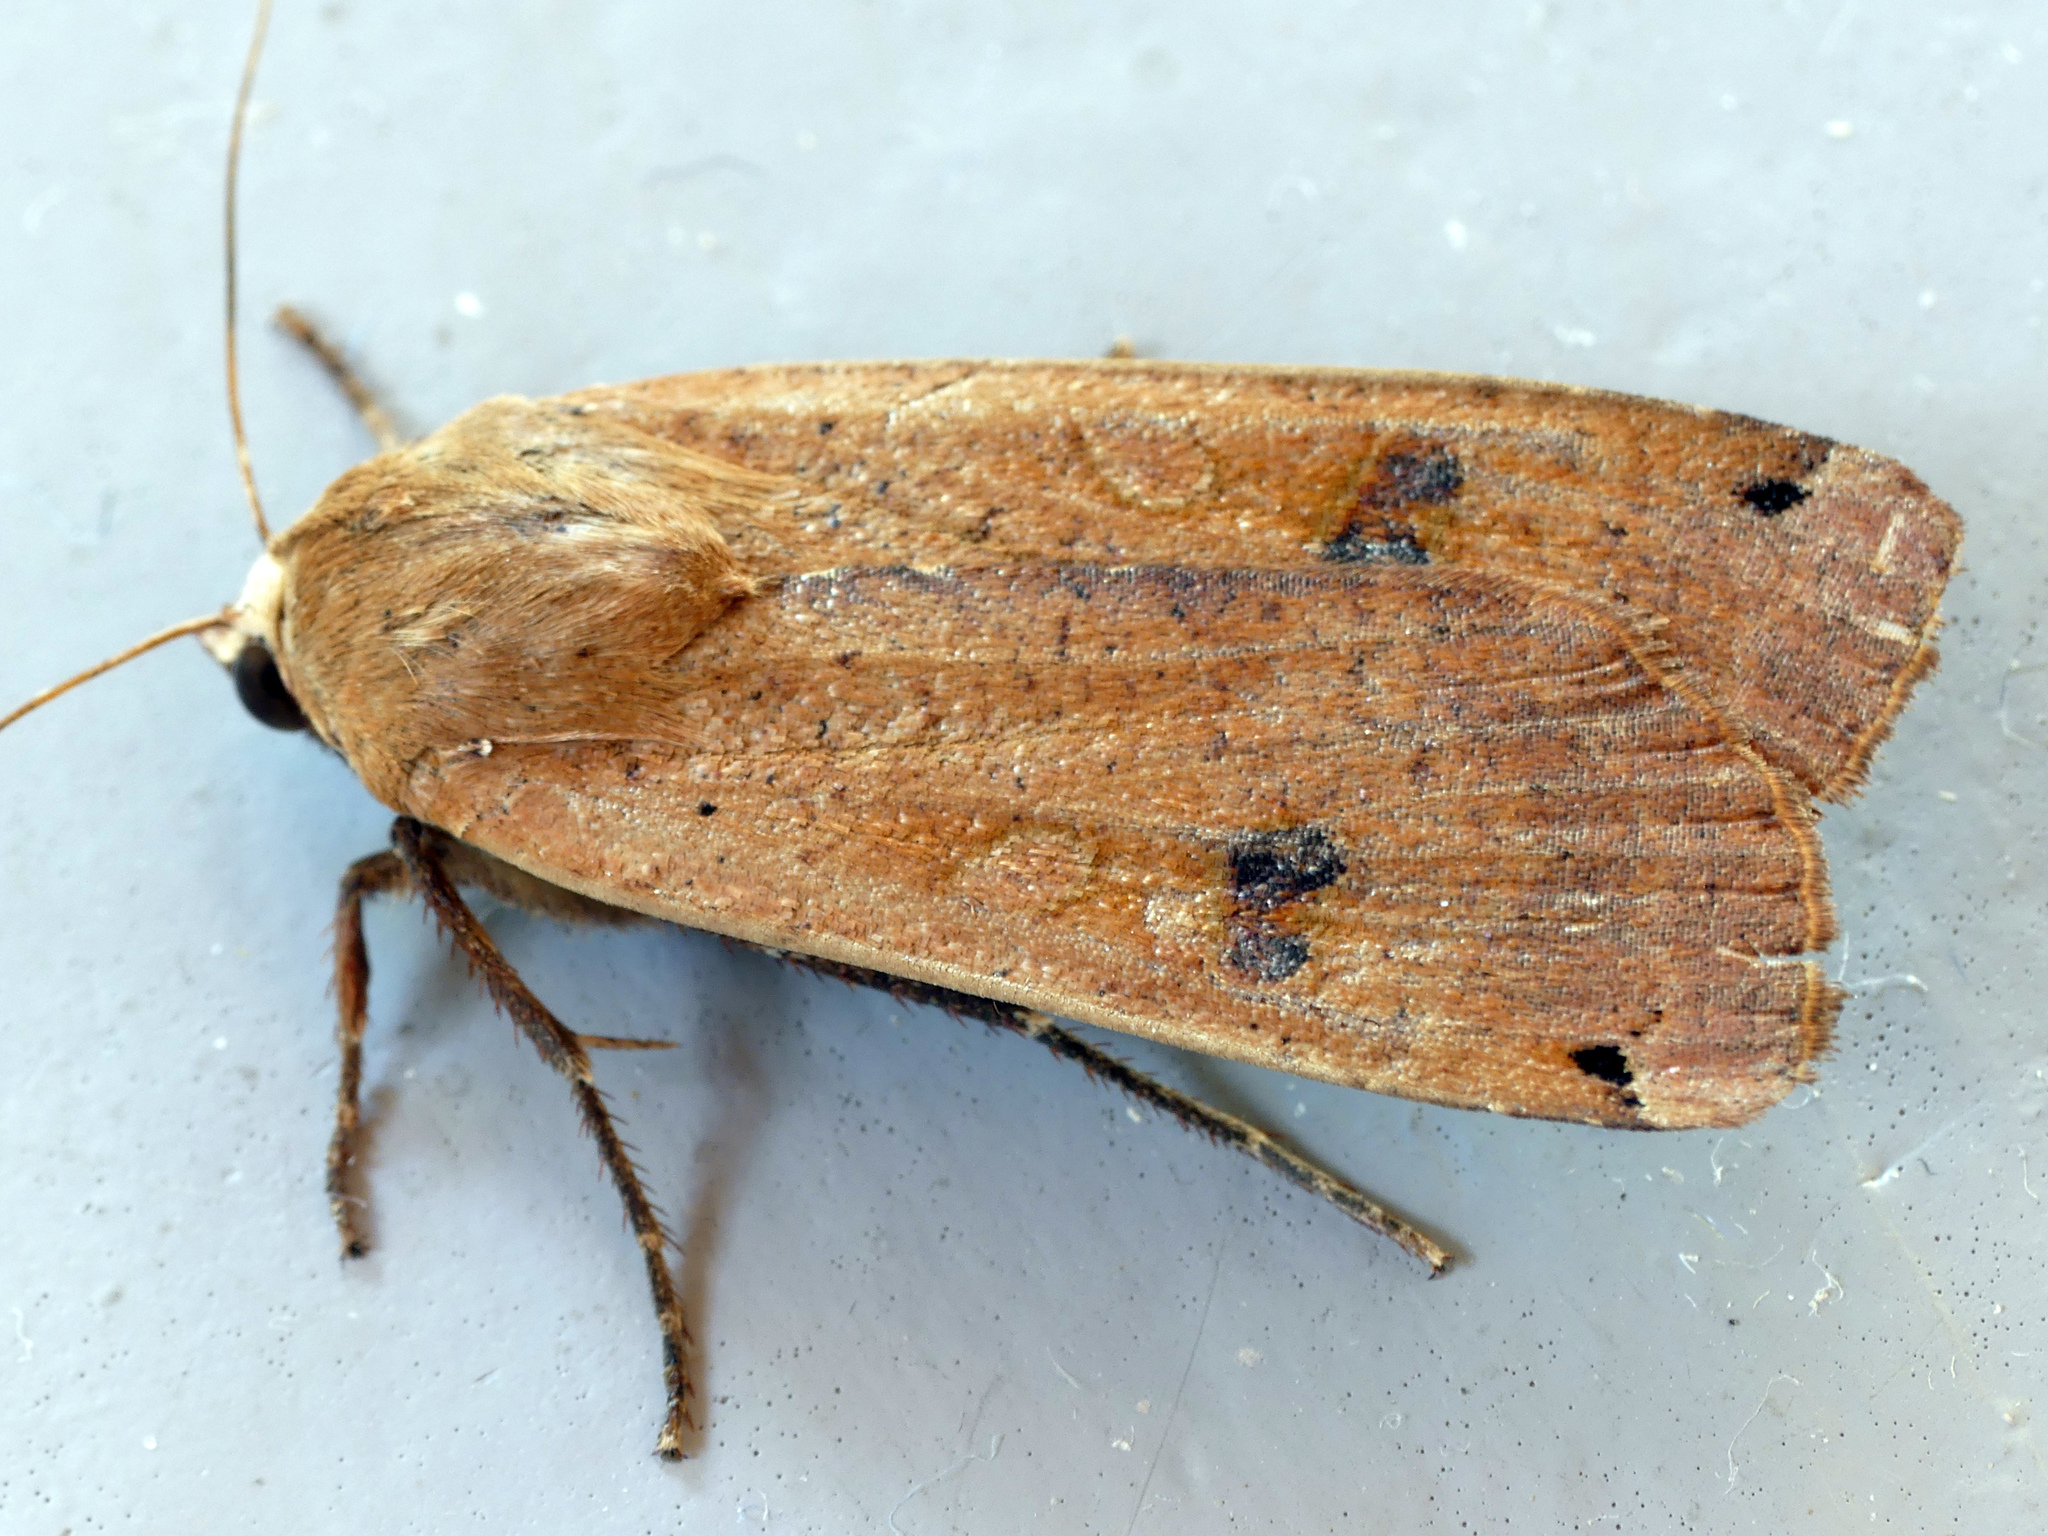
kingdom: Animalia
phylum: Arthropoda
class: Insecta
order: Lepidoptera
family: Noctuidae
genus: Noctua
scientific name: Noctua pronuba
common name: Large yellow underwing
